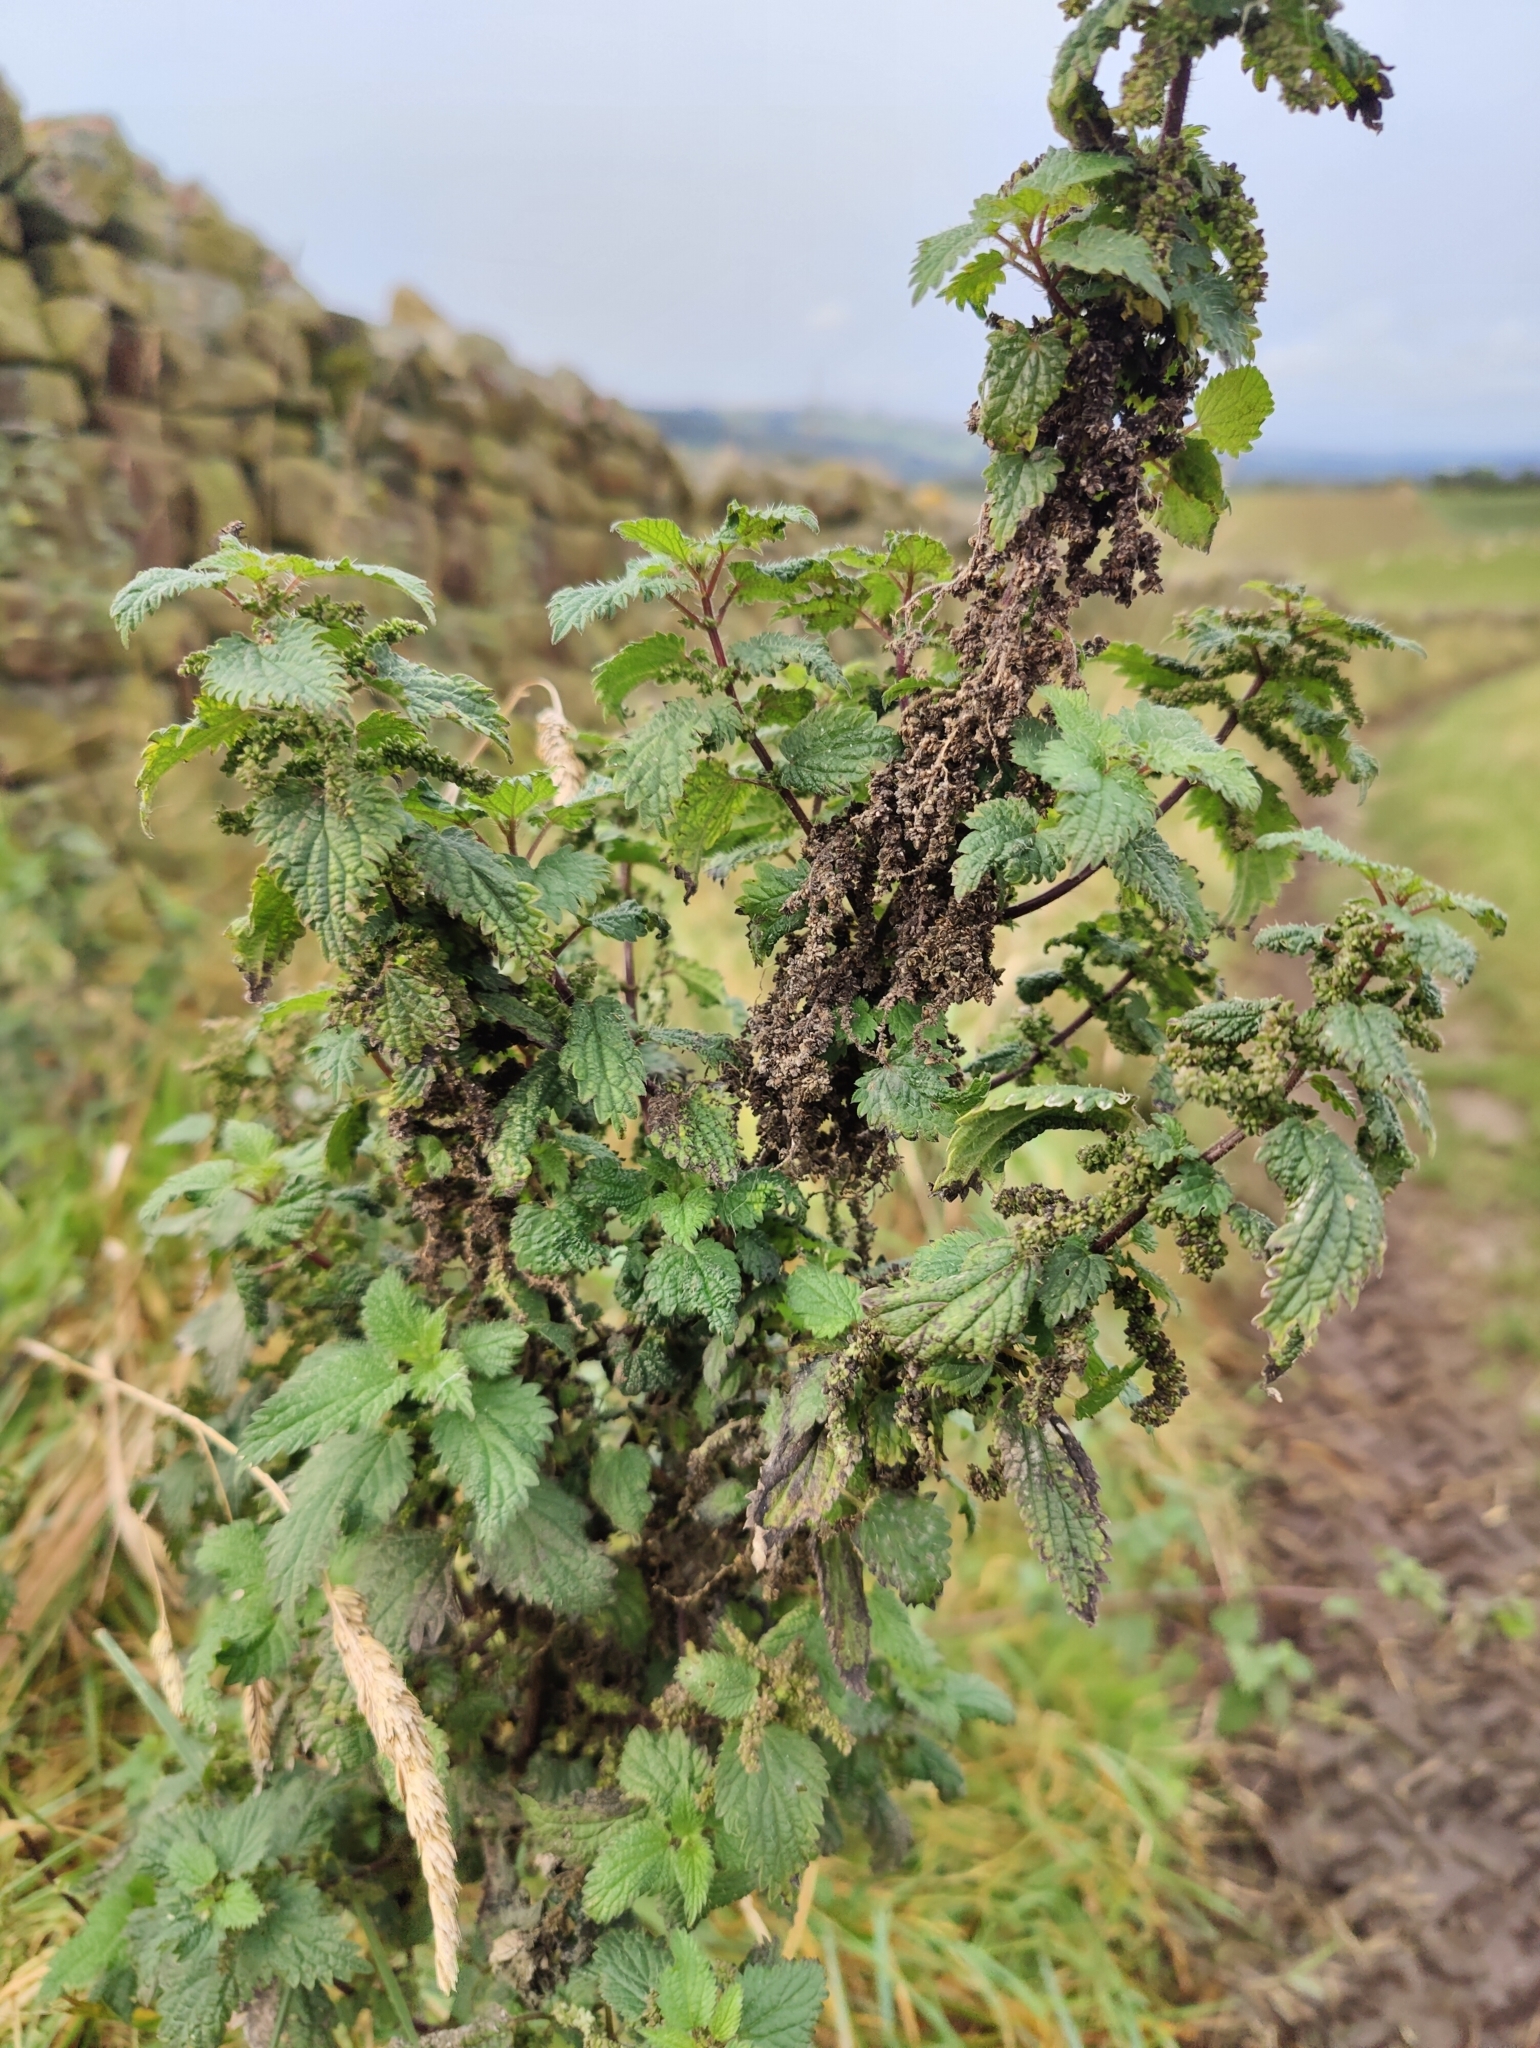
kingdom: Plantae
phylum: Tracheophyta
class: Magnoliopsida
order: Rosales
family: Urticaceae
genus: Urtica
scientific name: Urtica dioica
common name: Common nettle
